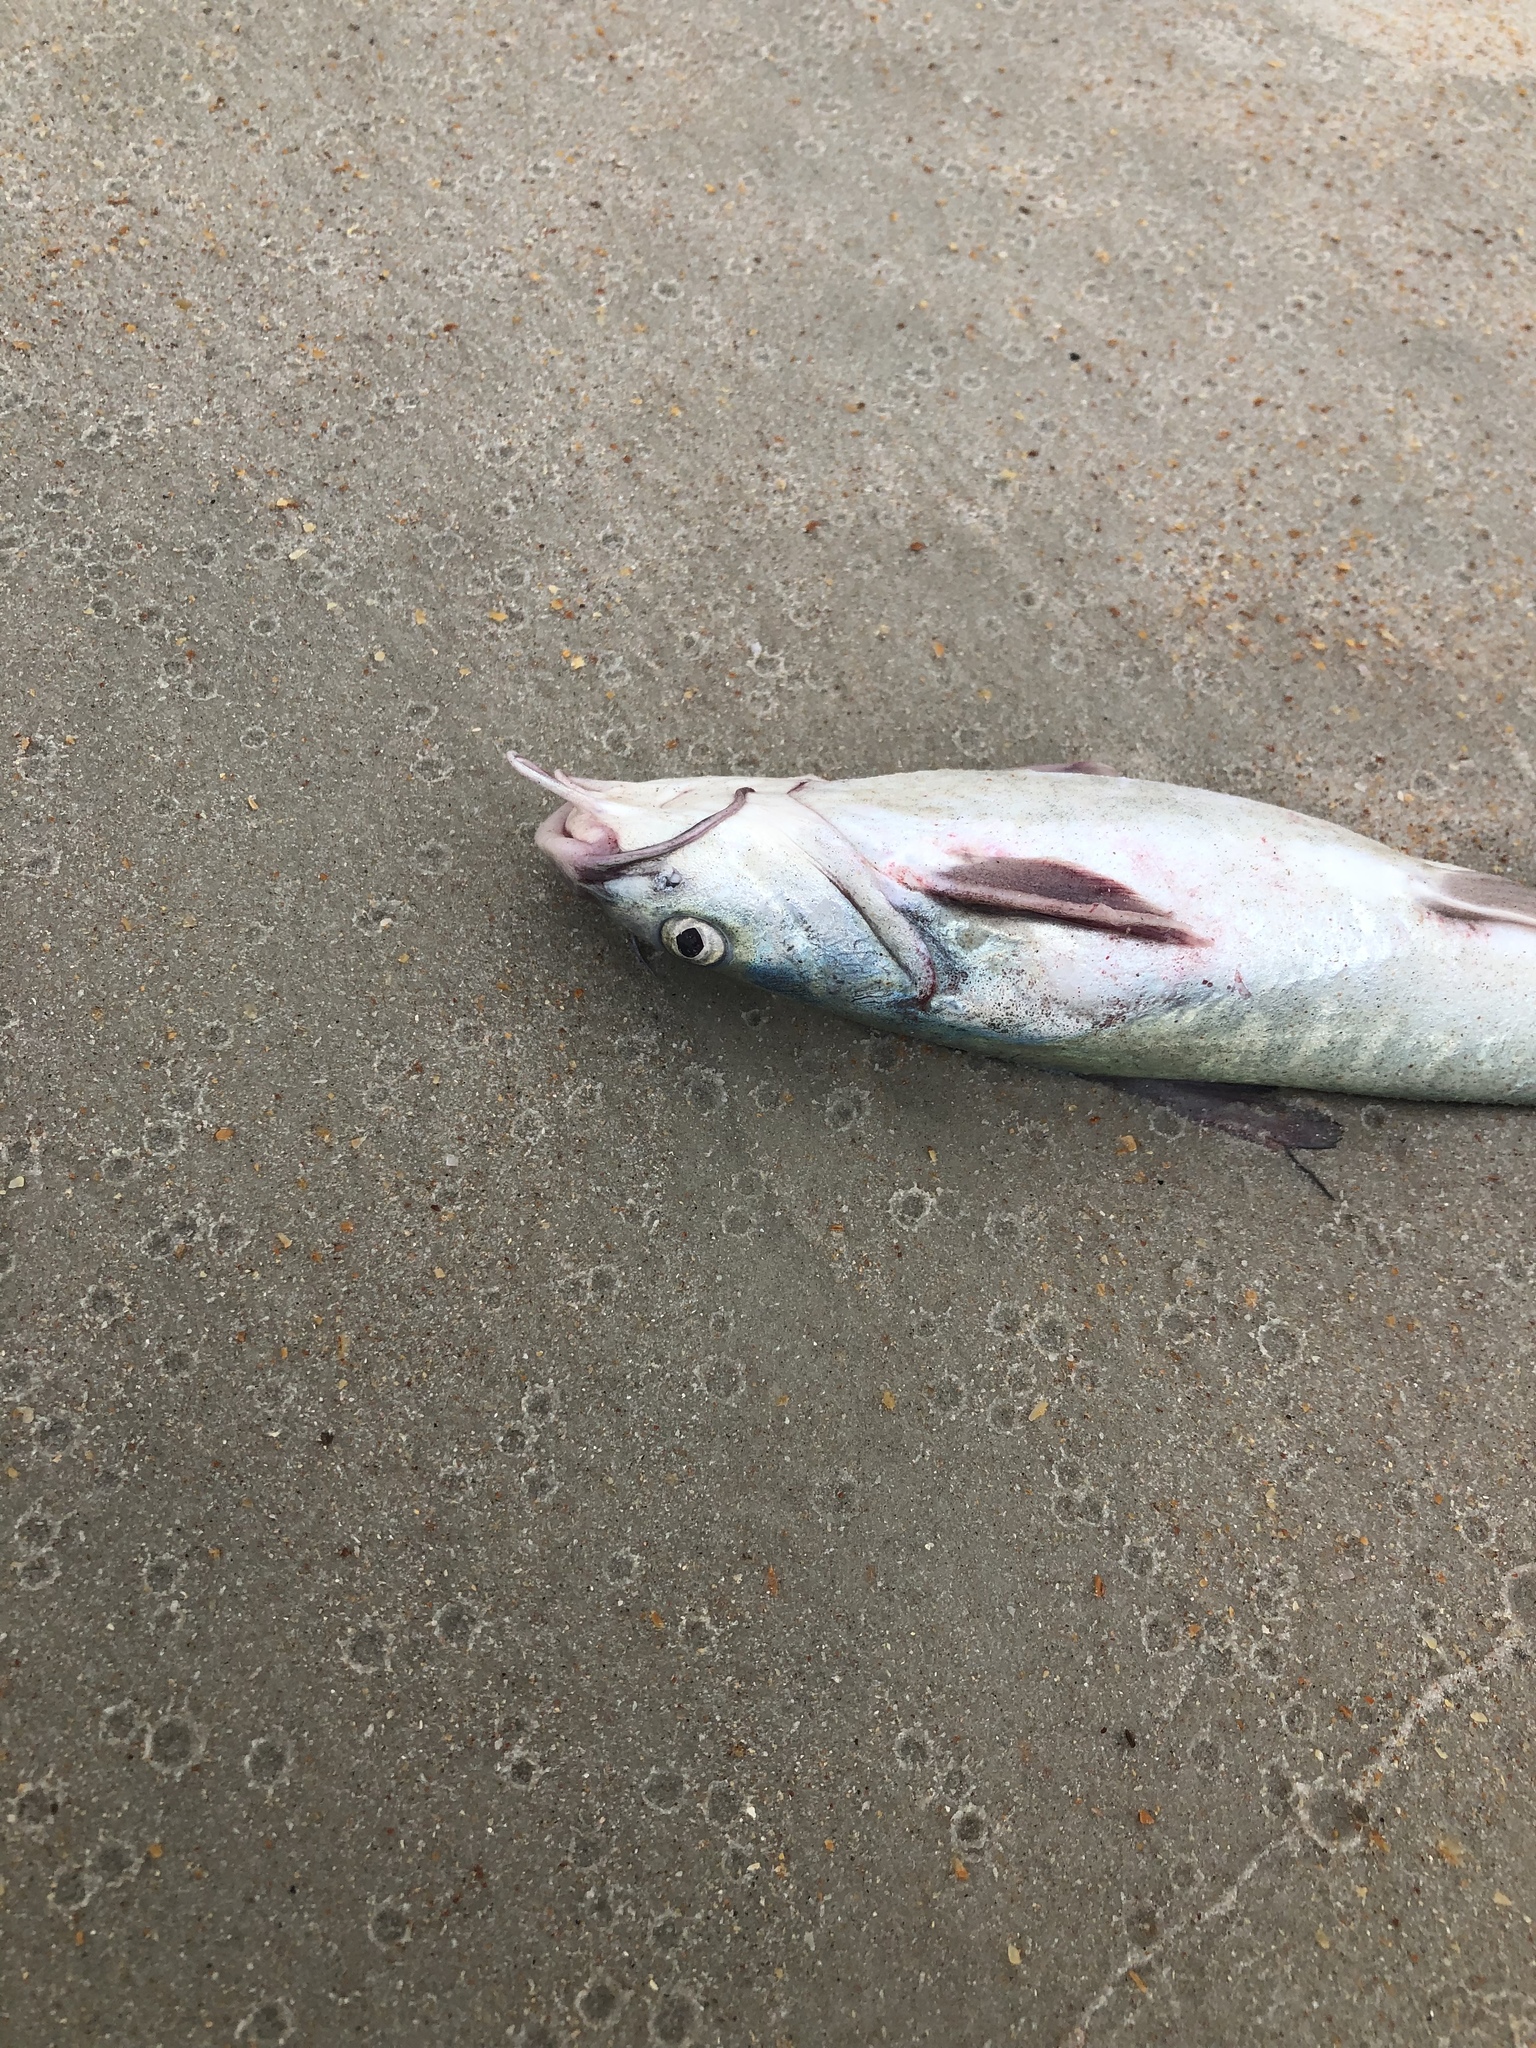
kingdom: Animalia
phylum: Chordata
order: Siluriformes
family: Ariidae
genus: Ariopsis
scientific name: Ariopsis felis
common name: Hardhead catfish
